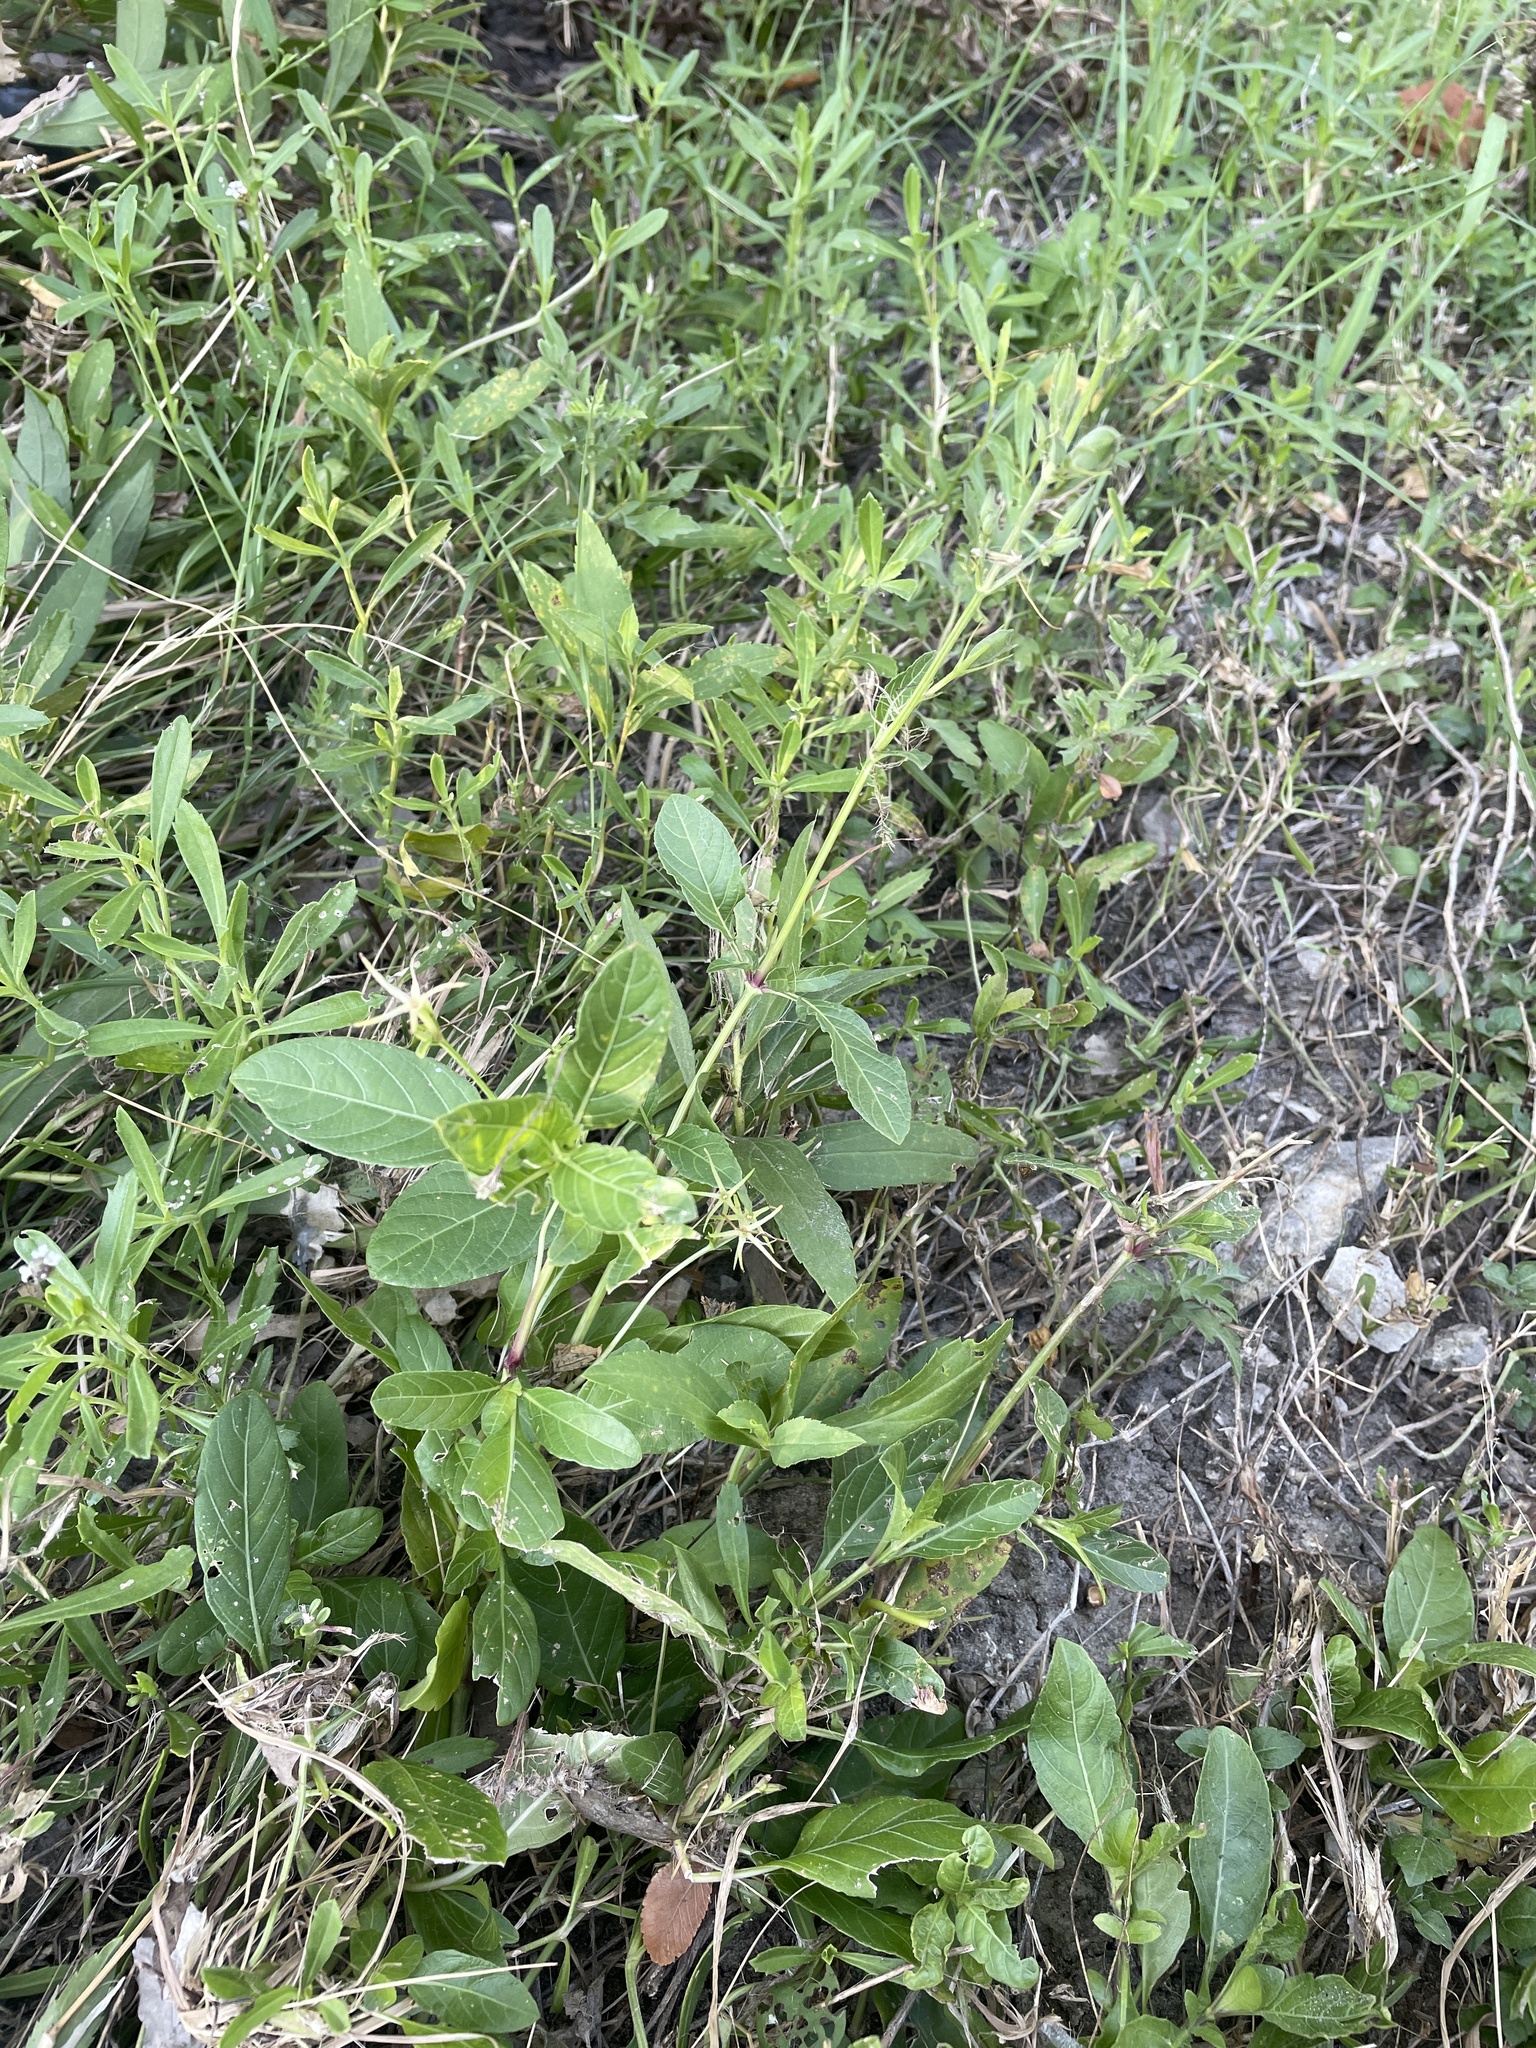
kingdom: Plantae
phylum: Tracheophyta
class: Magnoliopsida
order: Lamiales
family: Acanthaceae
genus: Ruellia
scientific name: Ruellia ciliatiflora
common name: Hairyflower wild petunia
